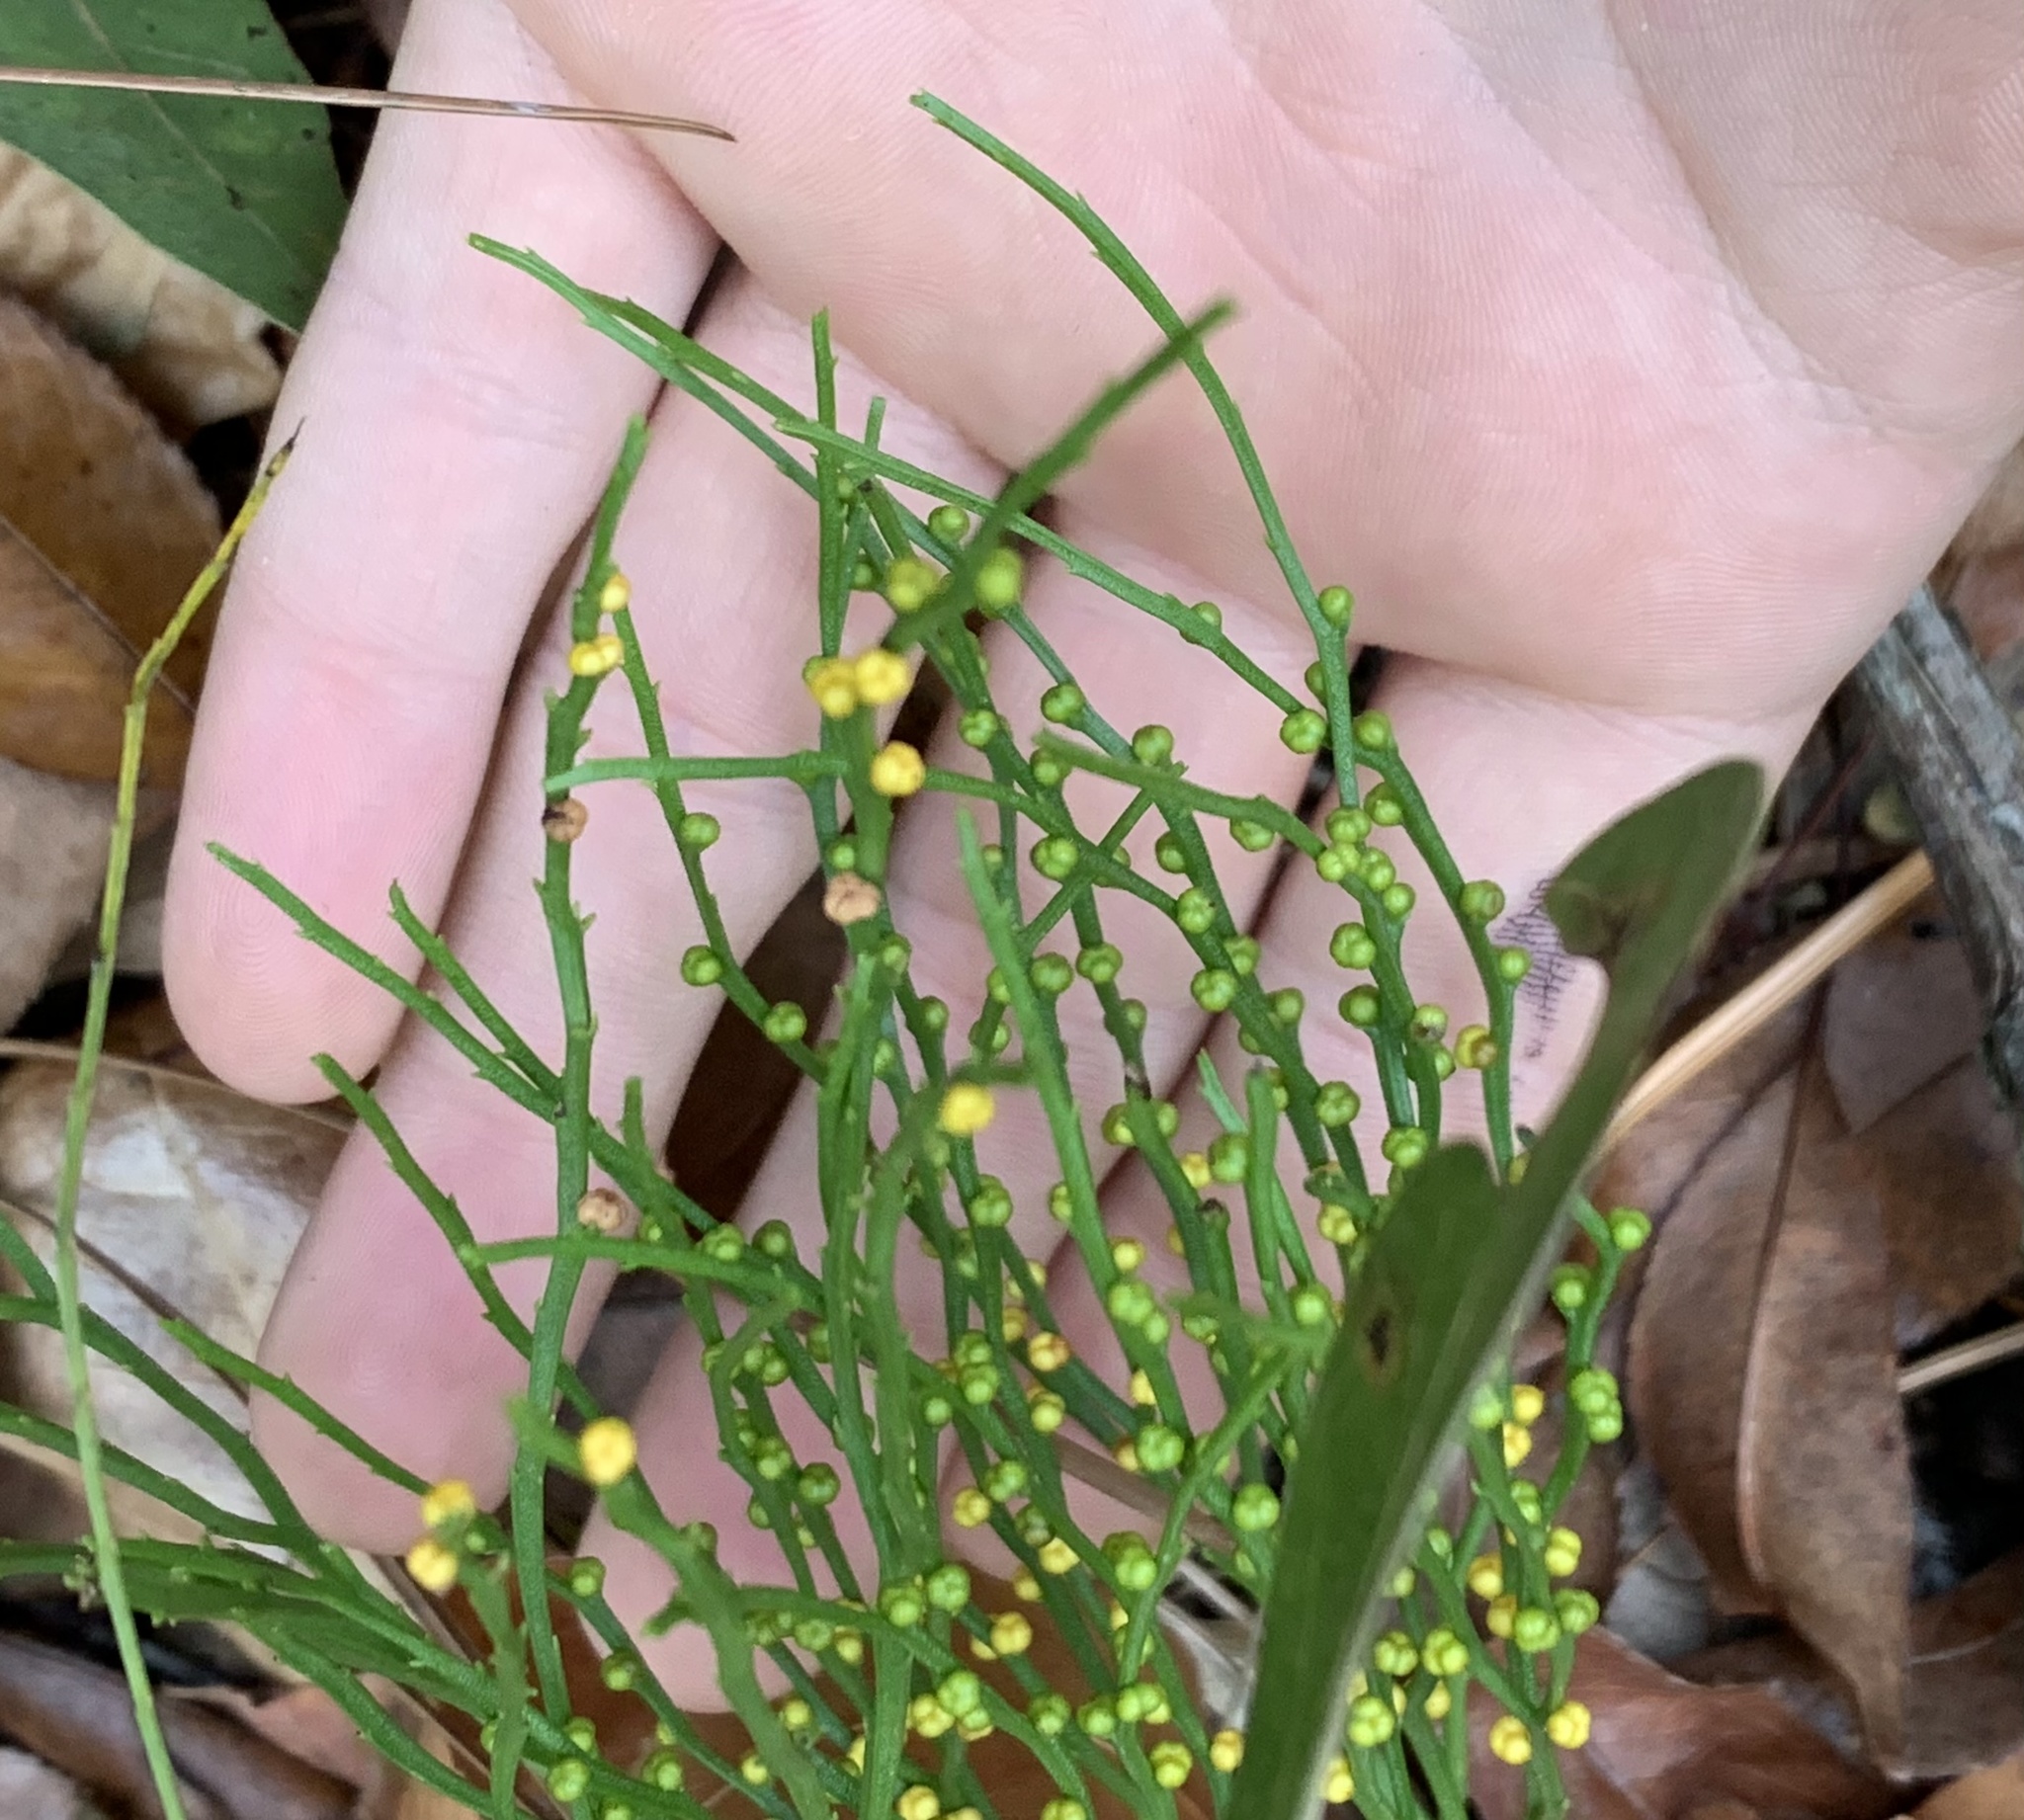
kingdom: Plantae
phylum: Tracheophyta
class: Polypodiopsida
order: Psilotales
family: Psilotaceae
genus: Psilotum
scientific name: Psilotum nudum
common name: Skeleton fork fern
